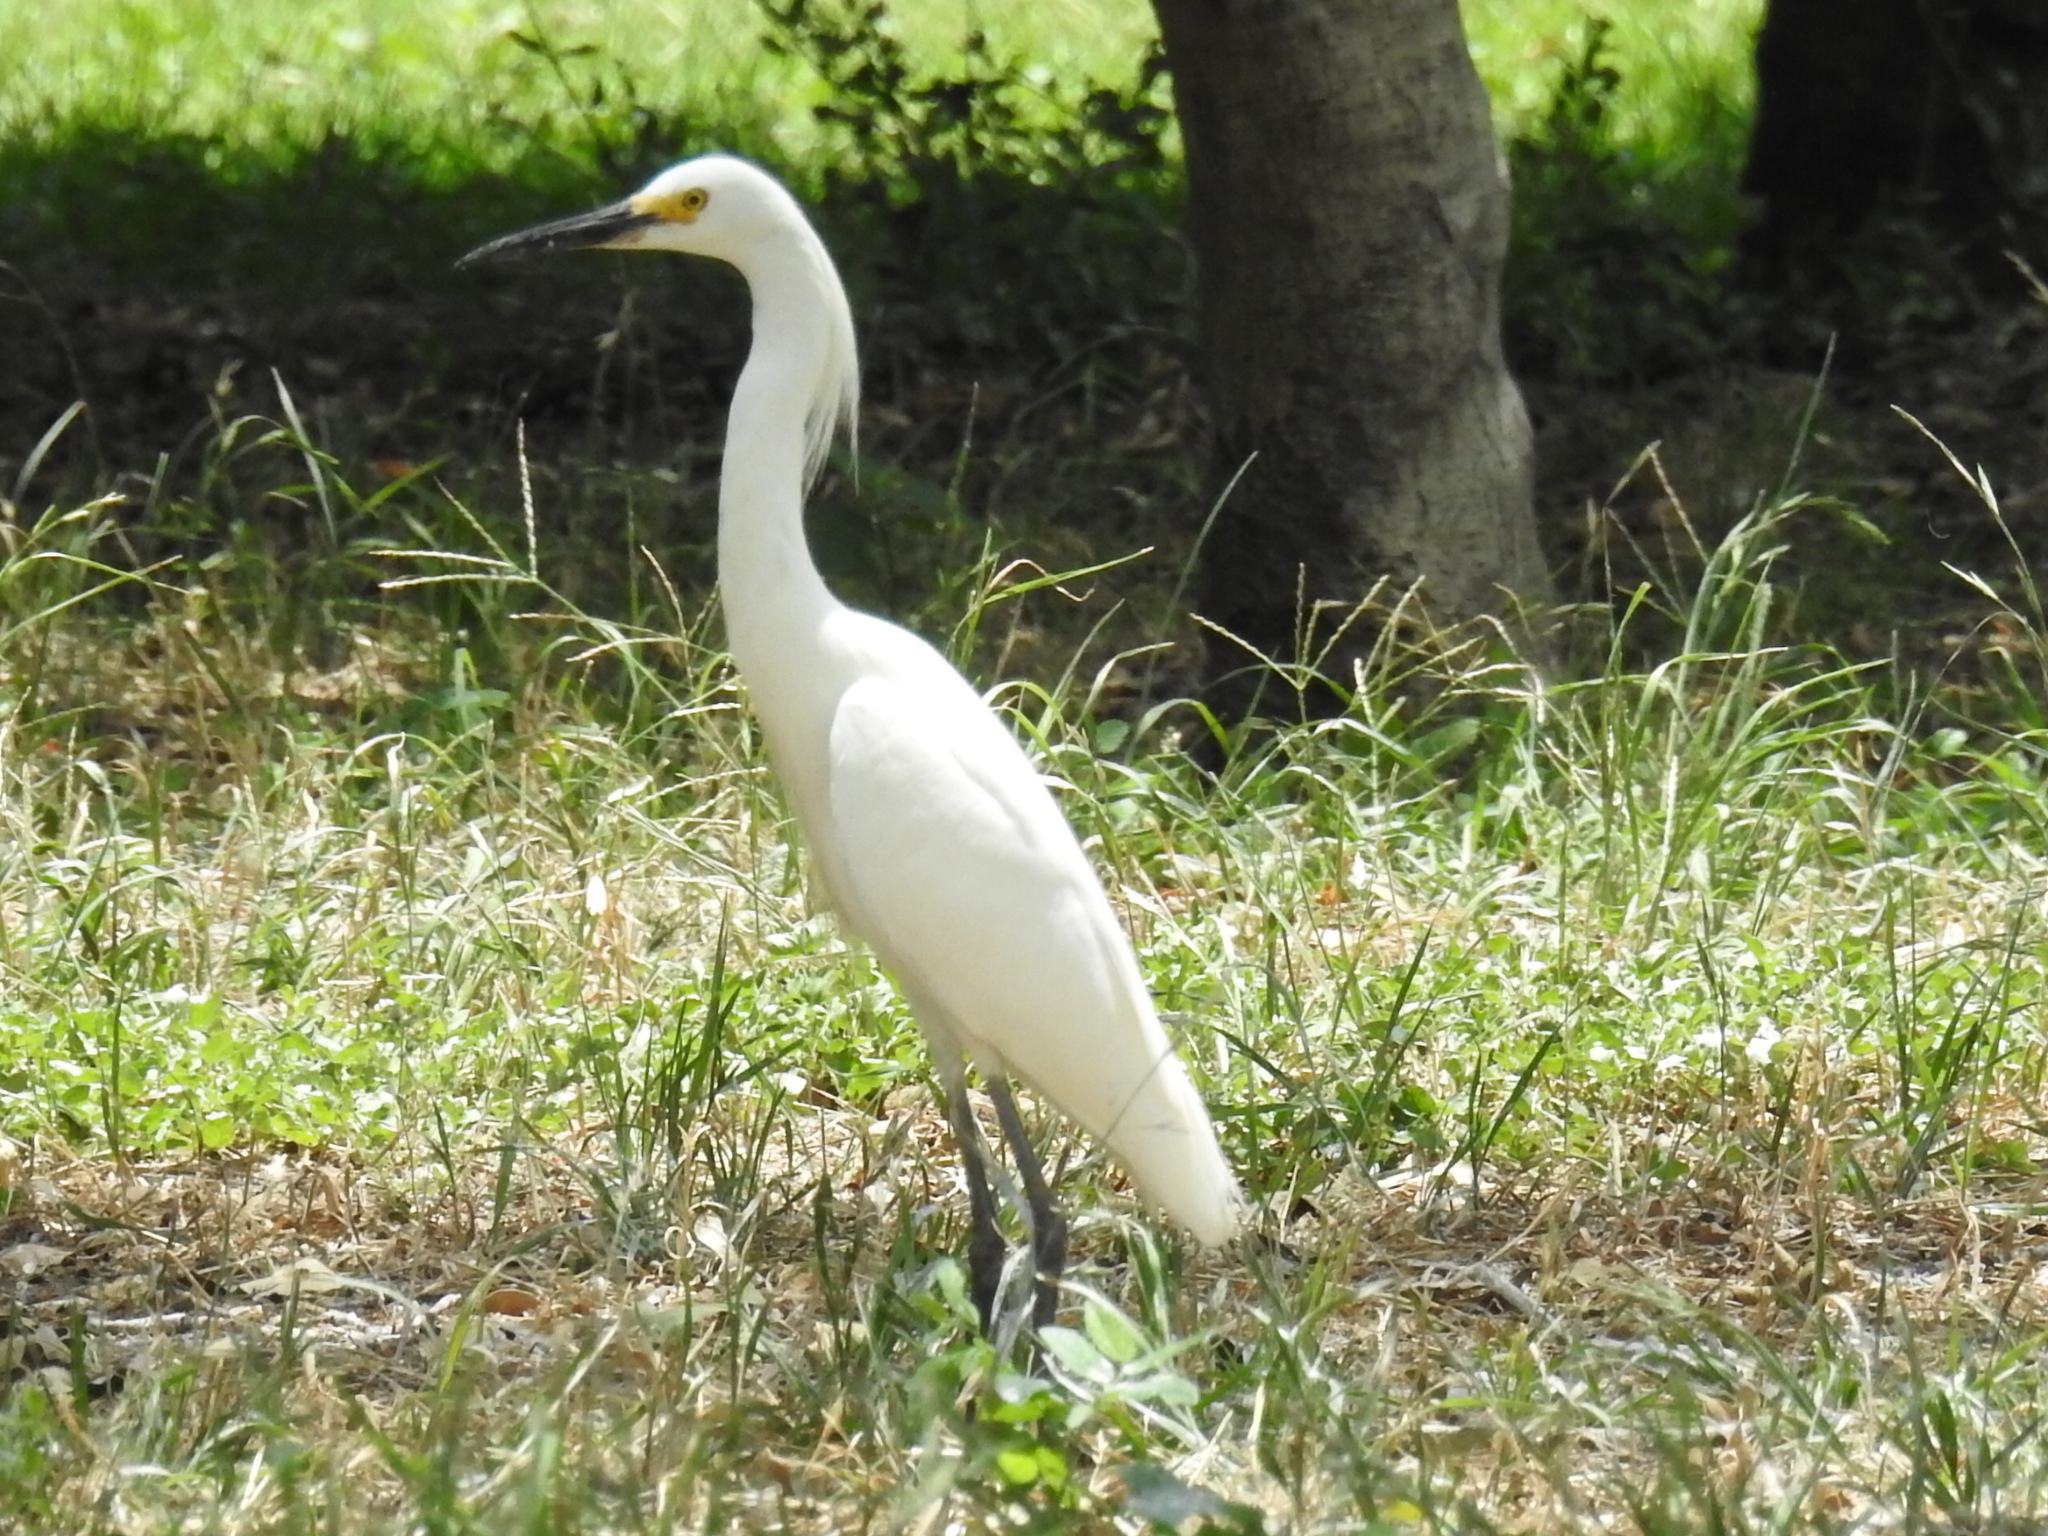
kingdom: Animalia
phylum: Chordata
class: Aves
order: Pelecaniformes
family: Ardeidae
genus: Egretta
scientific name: Egretta thula
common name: Snowy egret
